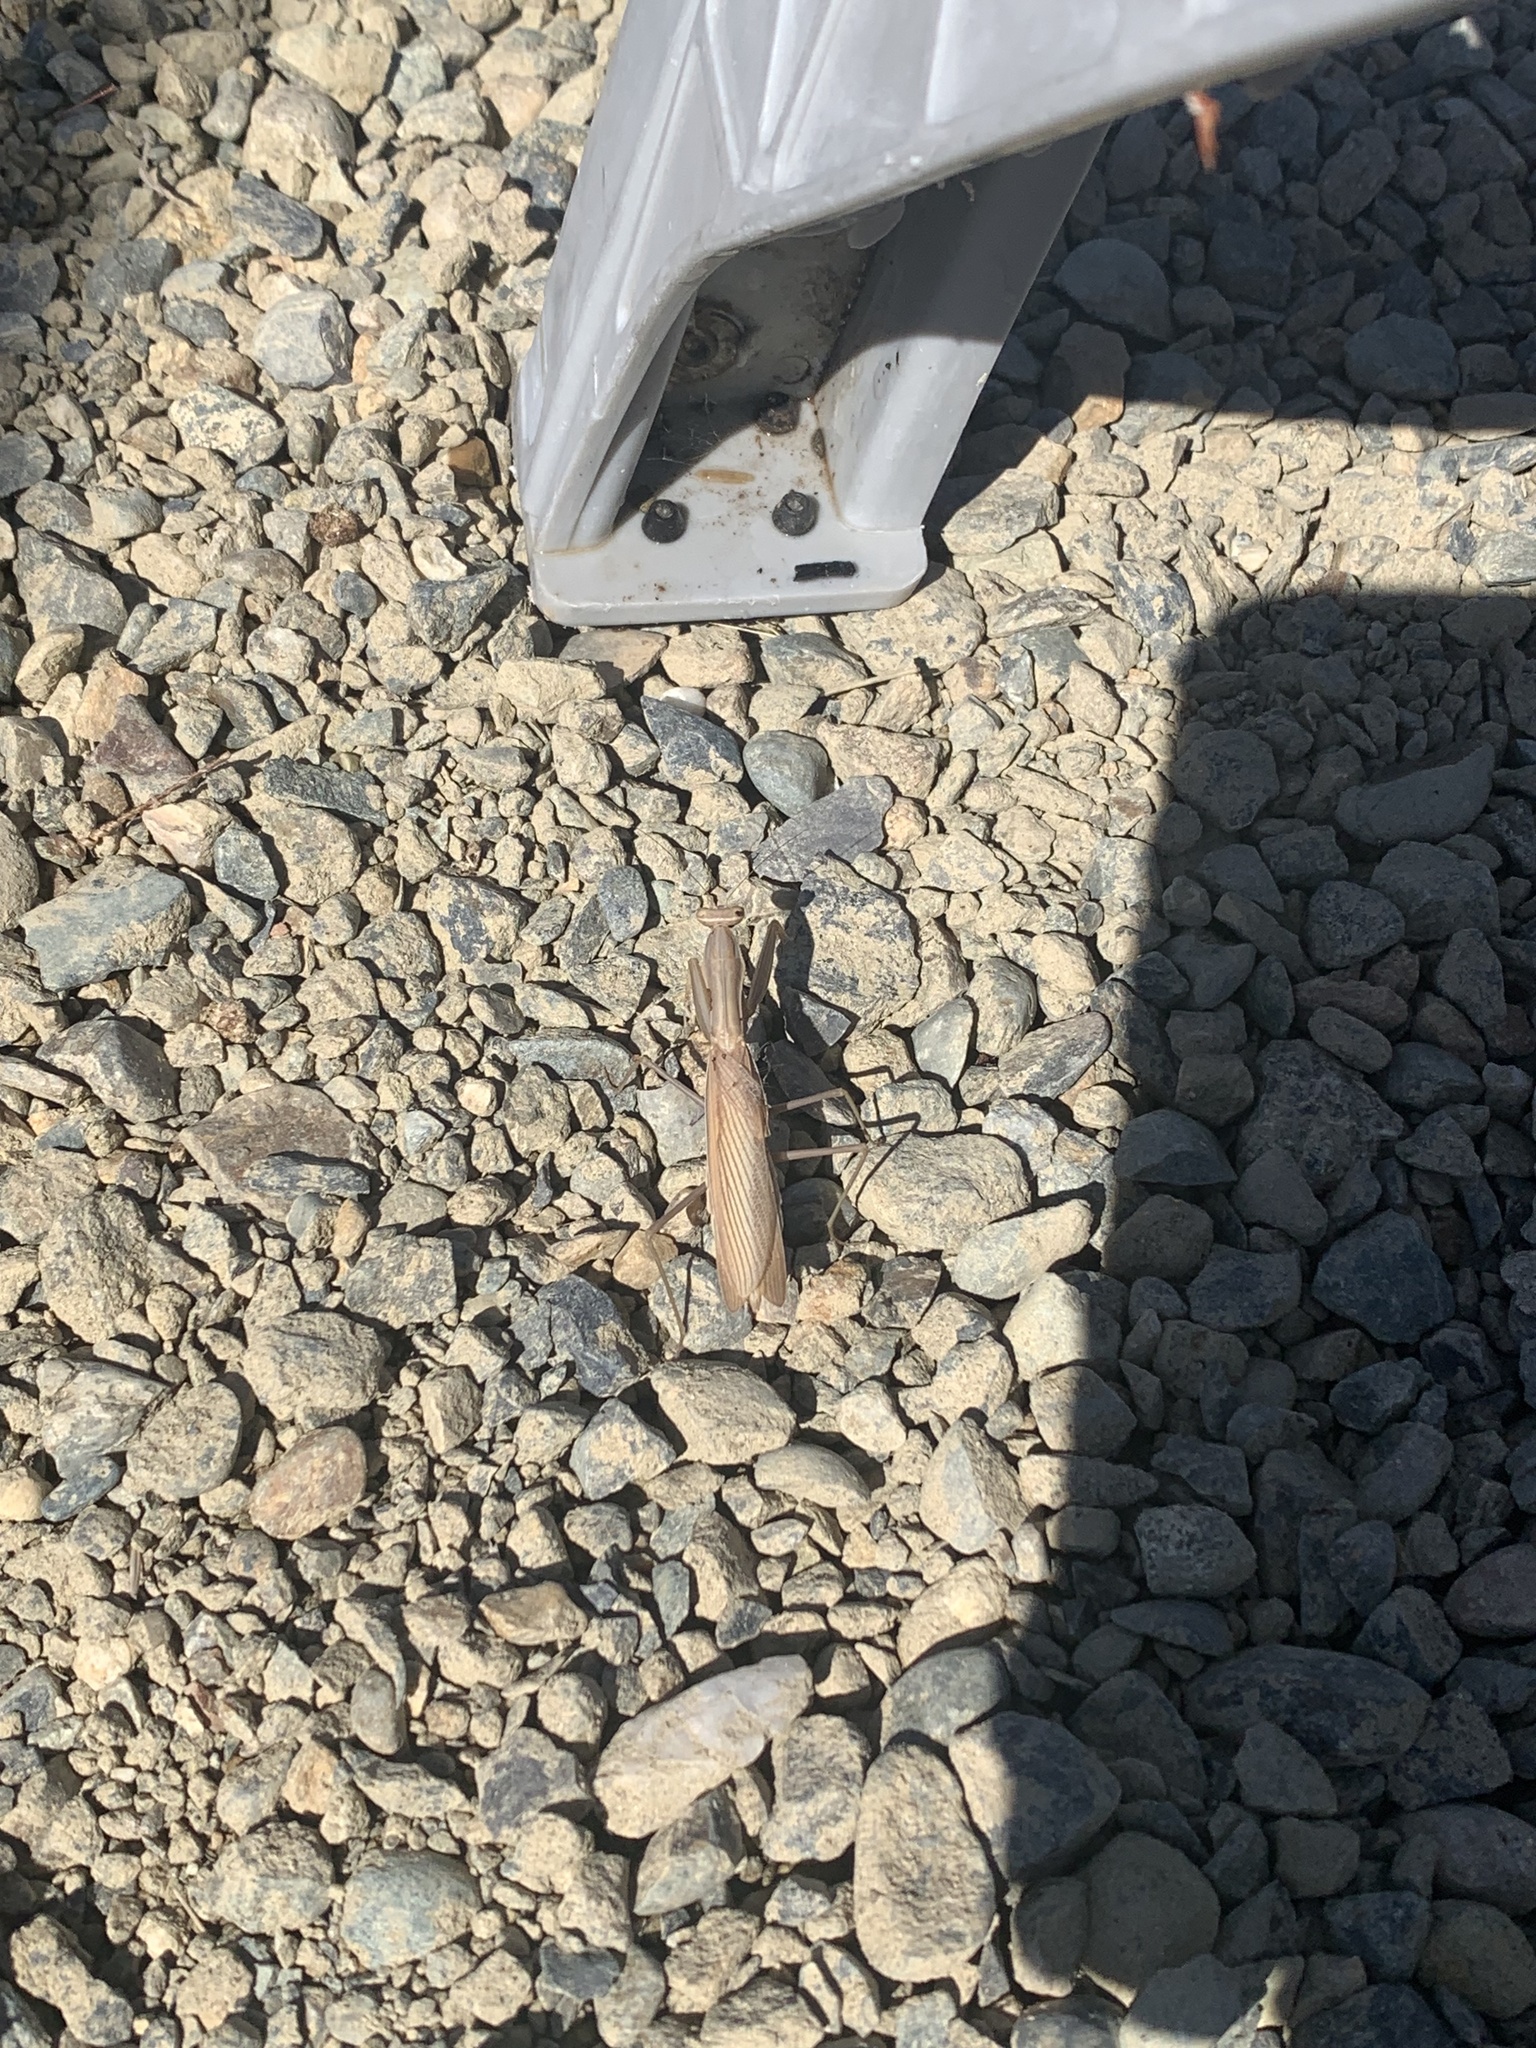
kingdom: Animalia
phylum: Arthropoda
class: Insecta
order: Mantodea
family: Mantidae
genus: Mantis
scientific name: Mantis religiosa
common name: Praying mantis
